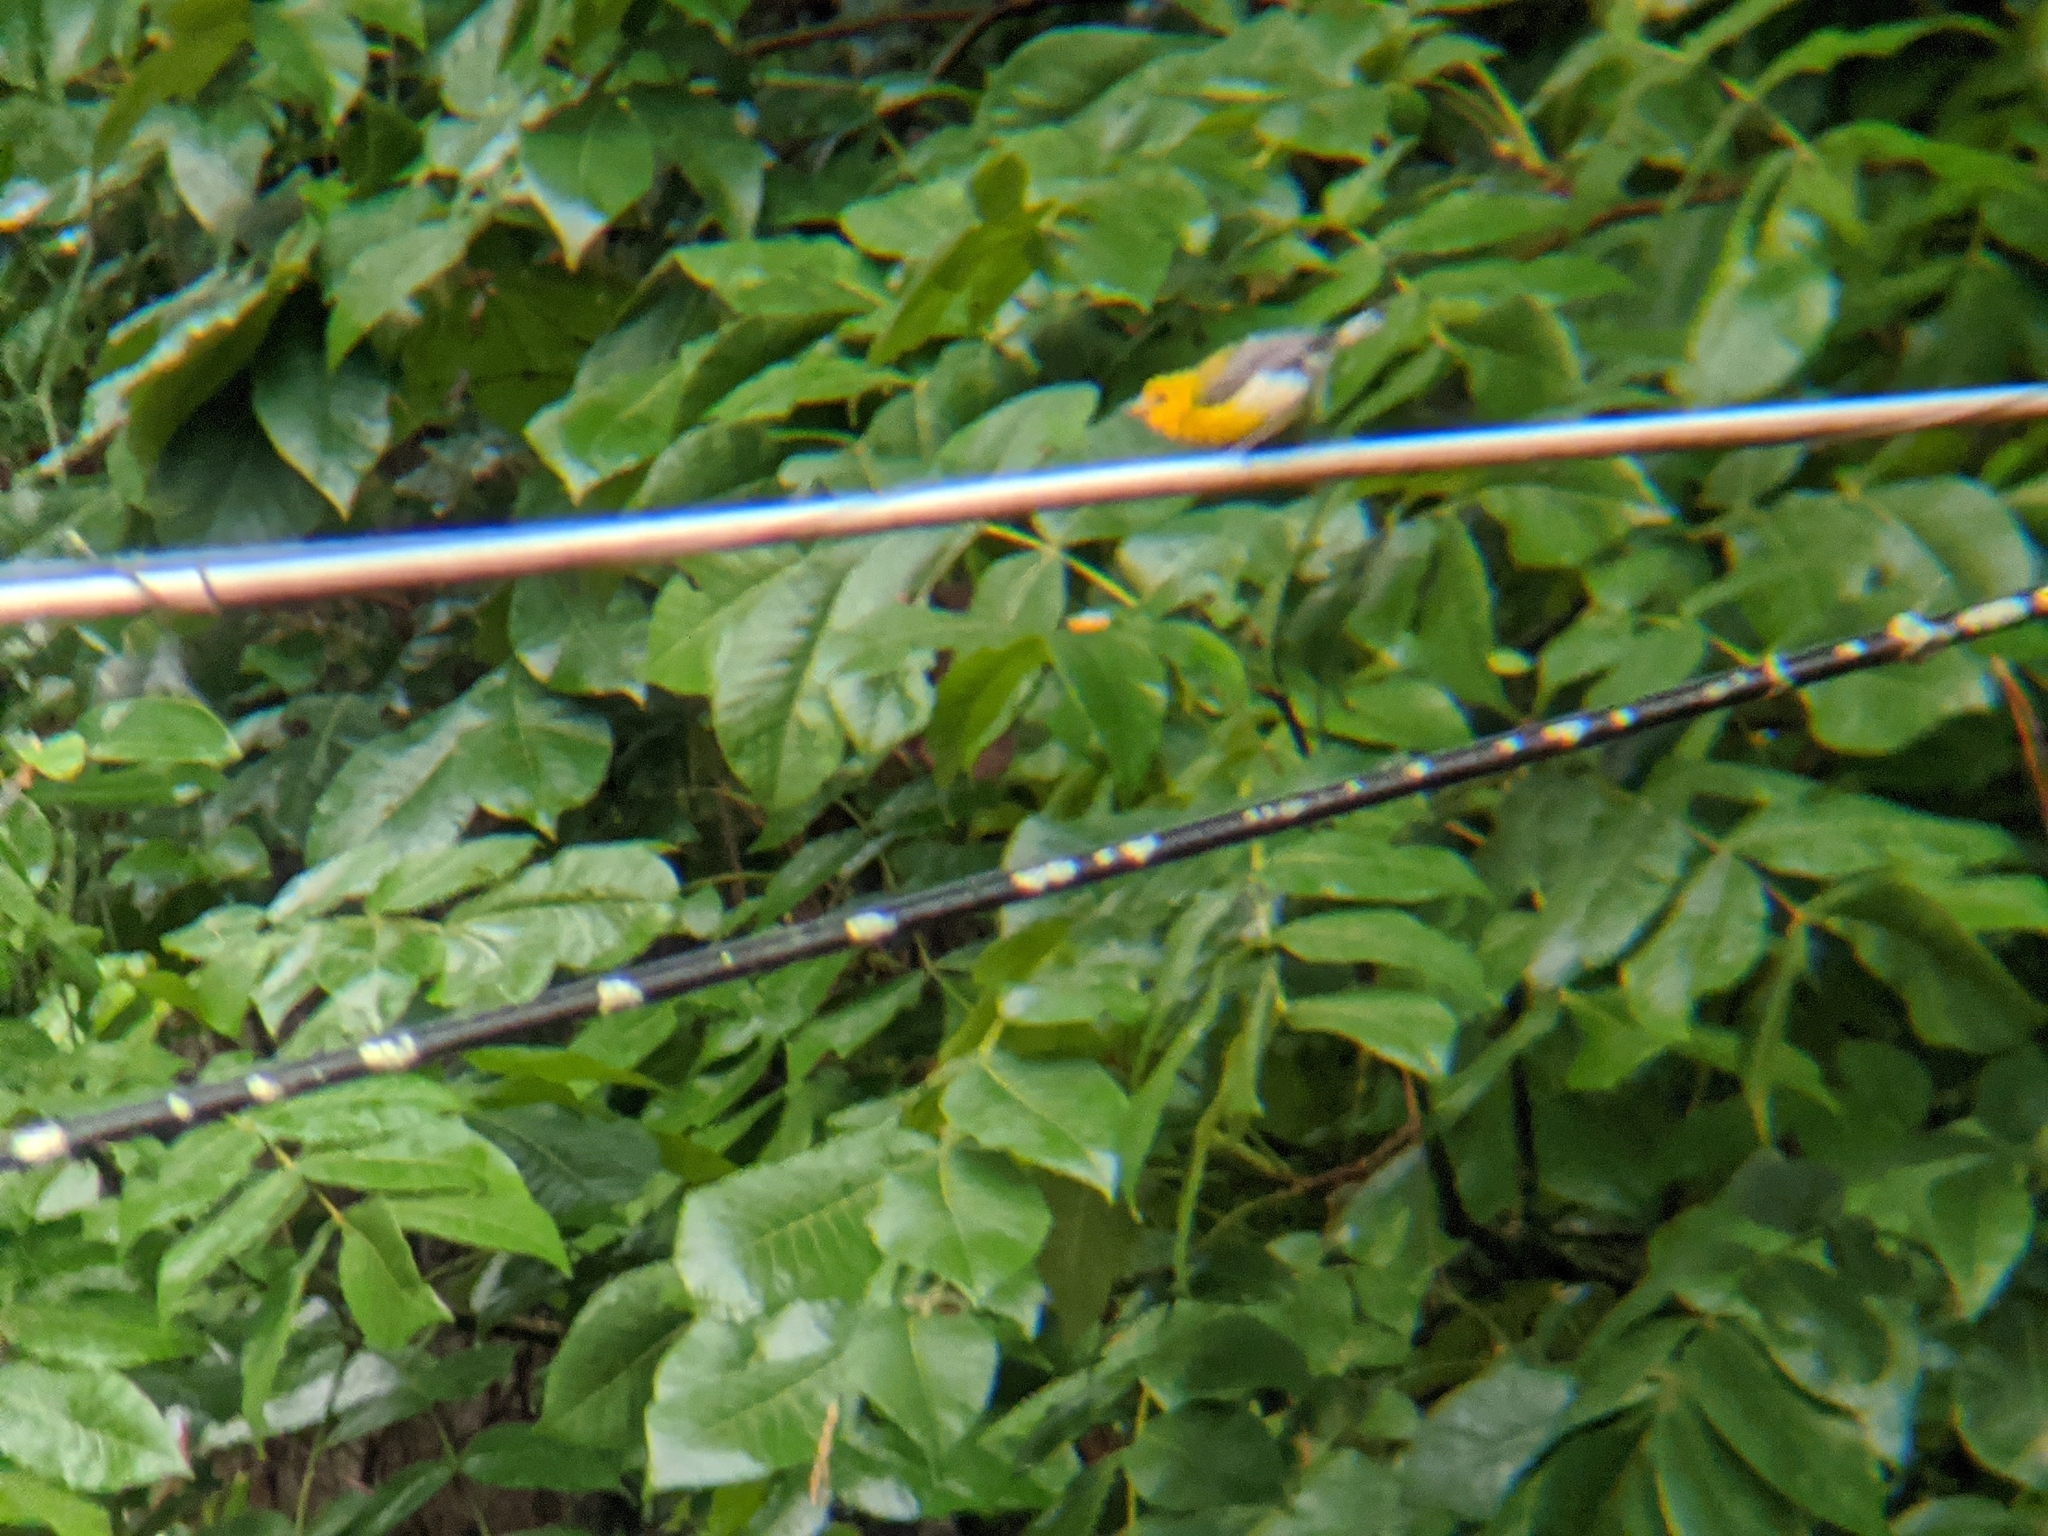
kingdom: Animalia
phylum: Chordata
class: Aves
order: Passeriformes
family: Parulidae
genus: Protonotaria
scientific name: Protonotaria citrea
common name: Prothonotary warbler
